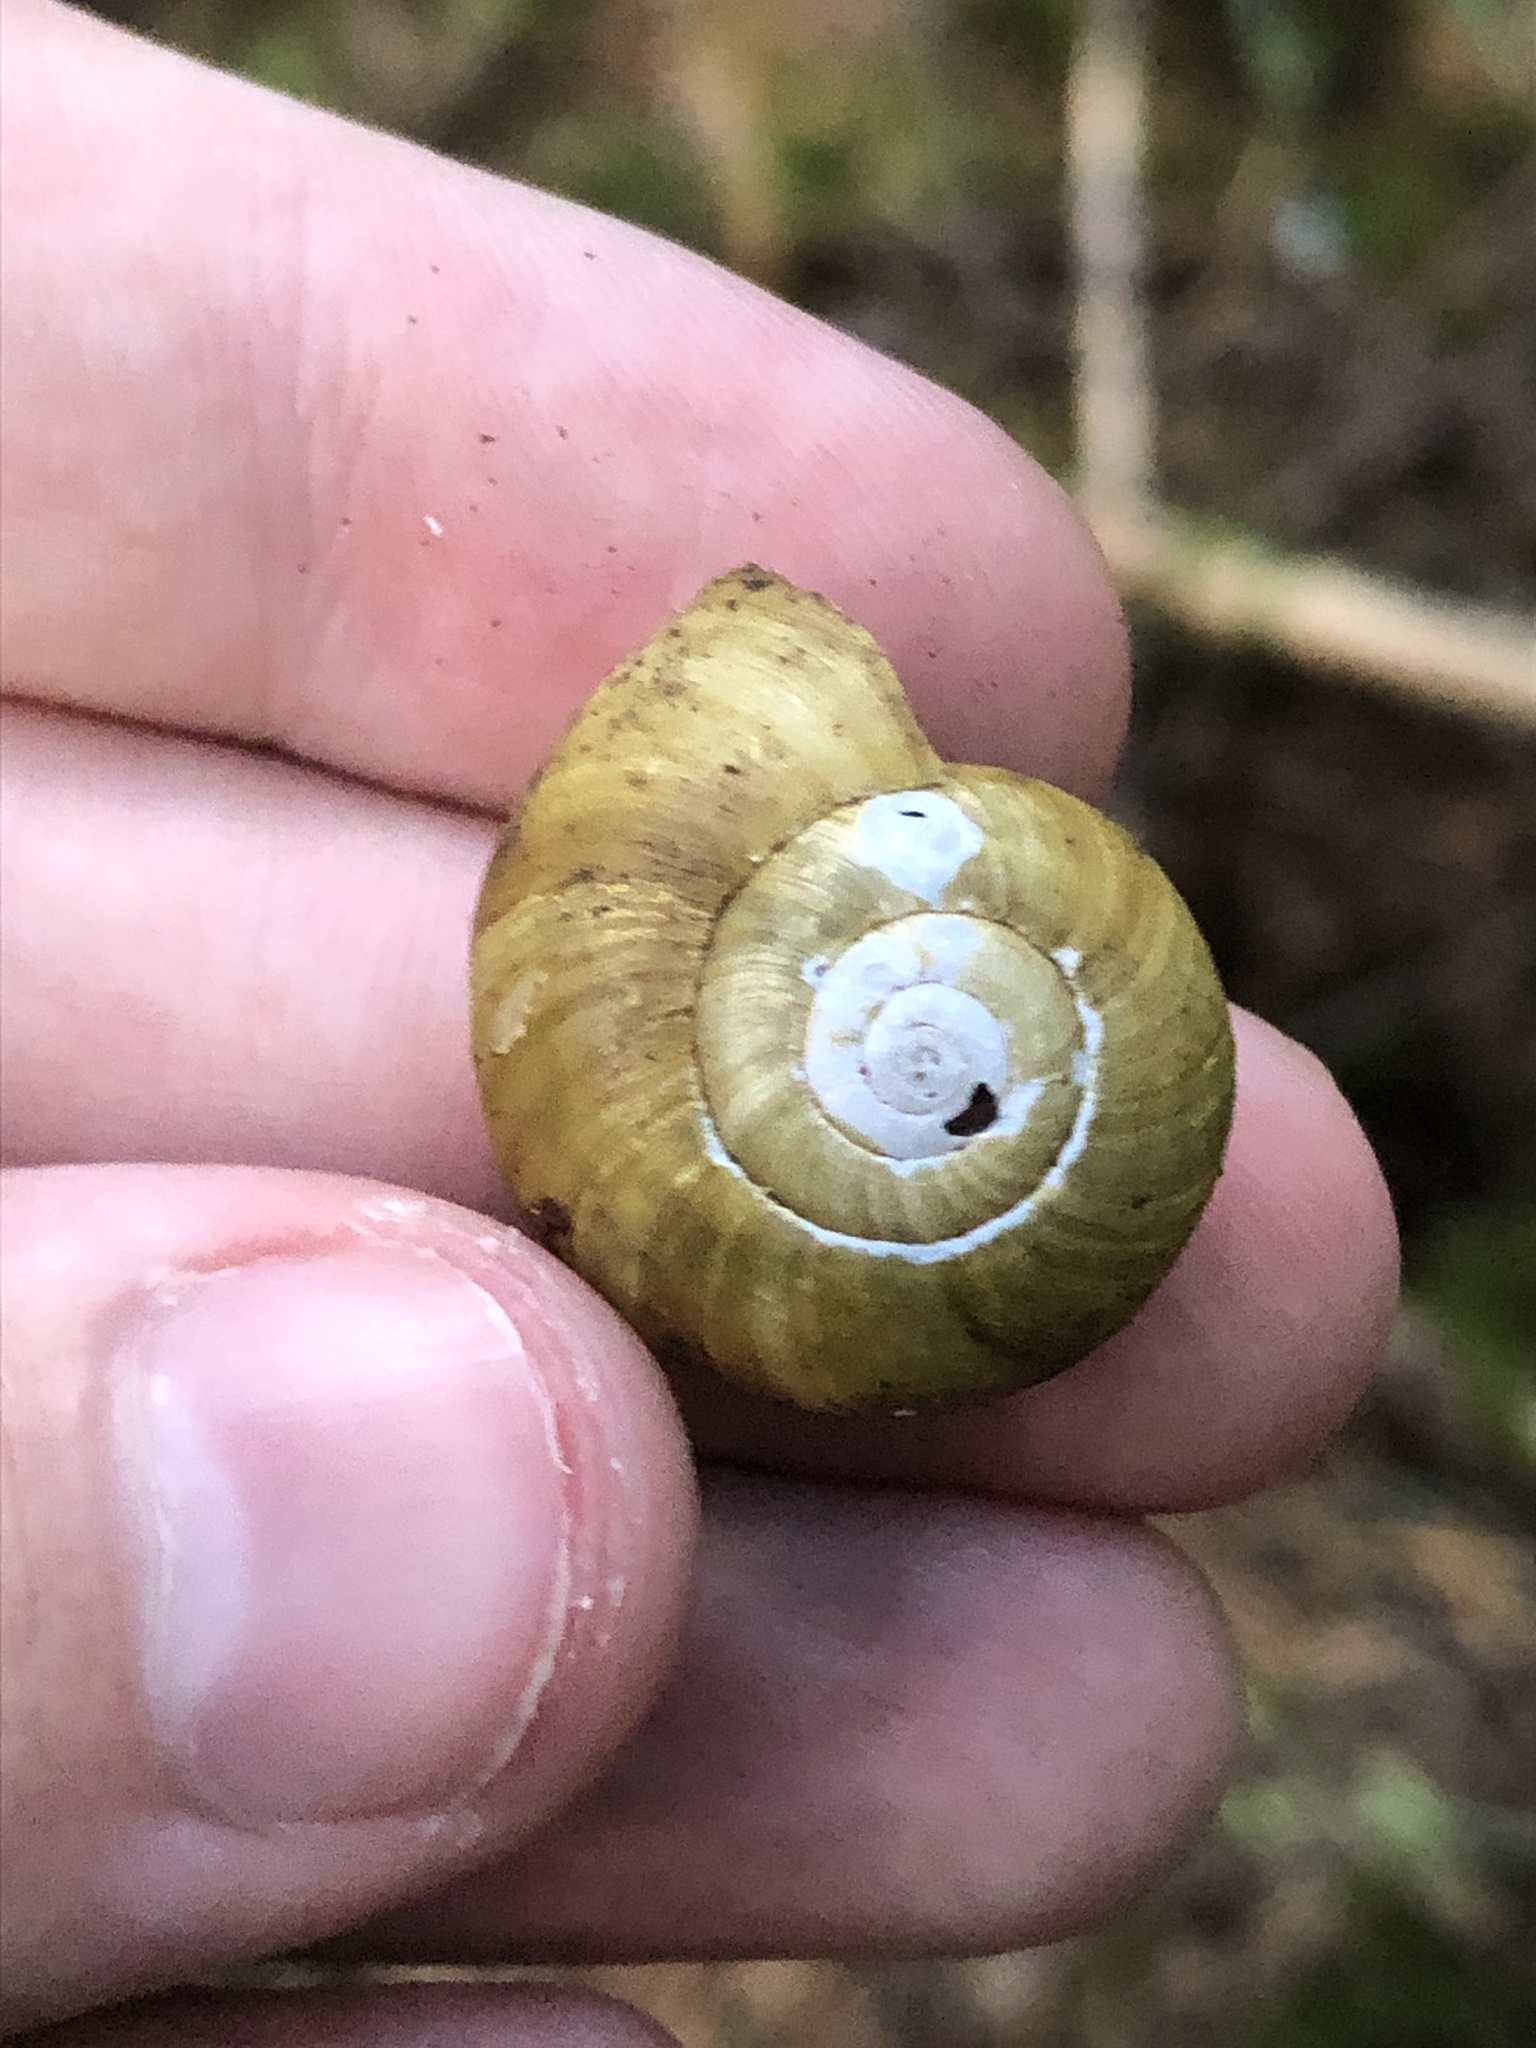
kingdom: Animalia
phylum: Mollusca
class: Gastropoda
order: Stylommatophora
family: Haplotrematidae
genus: Haplotrema
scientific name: Haplotrema vancouverense
